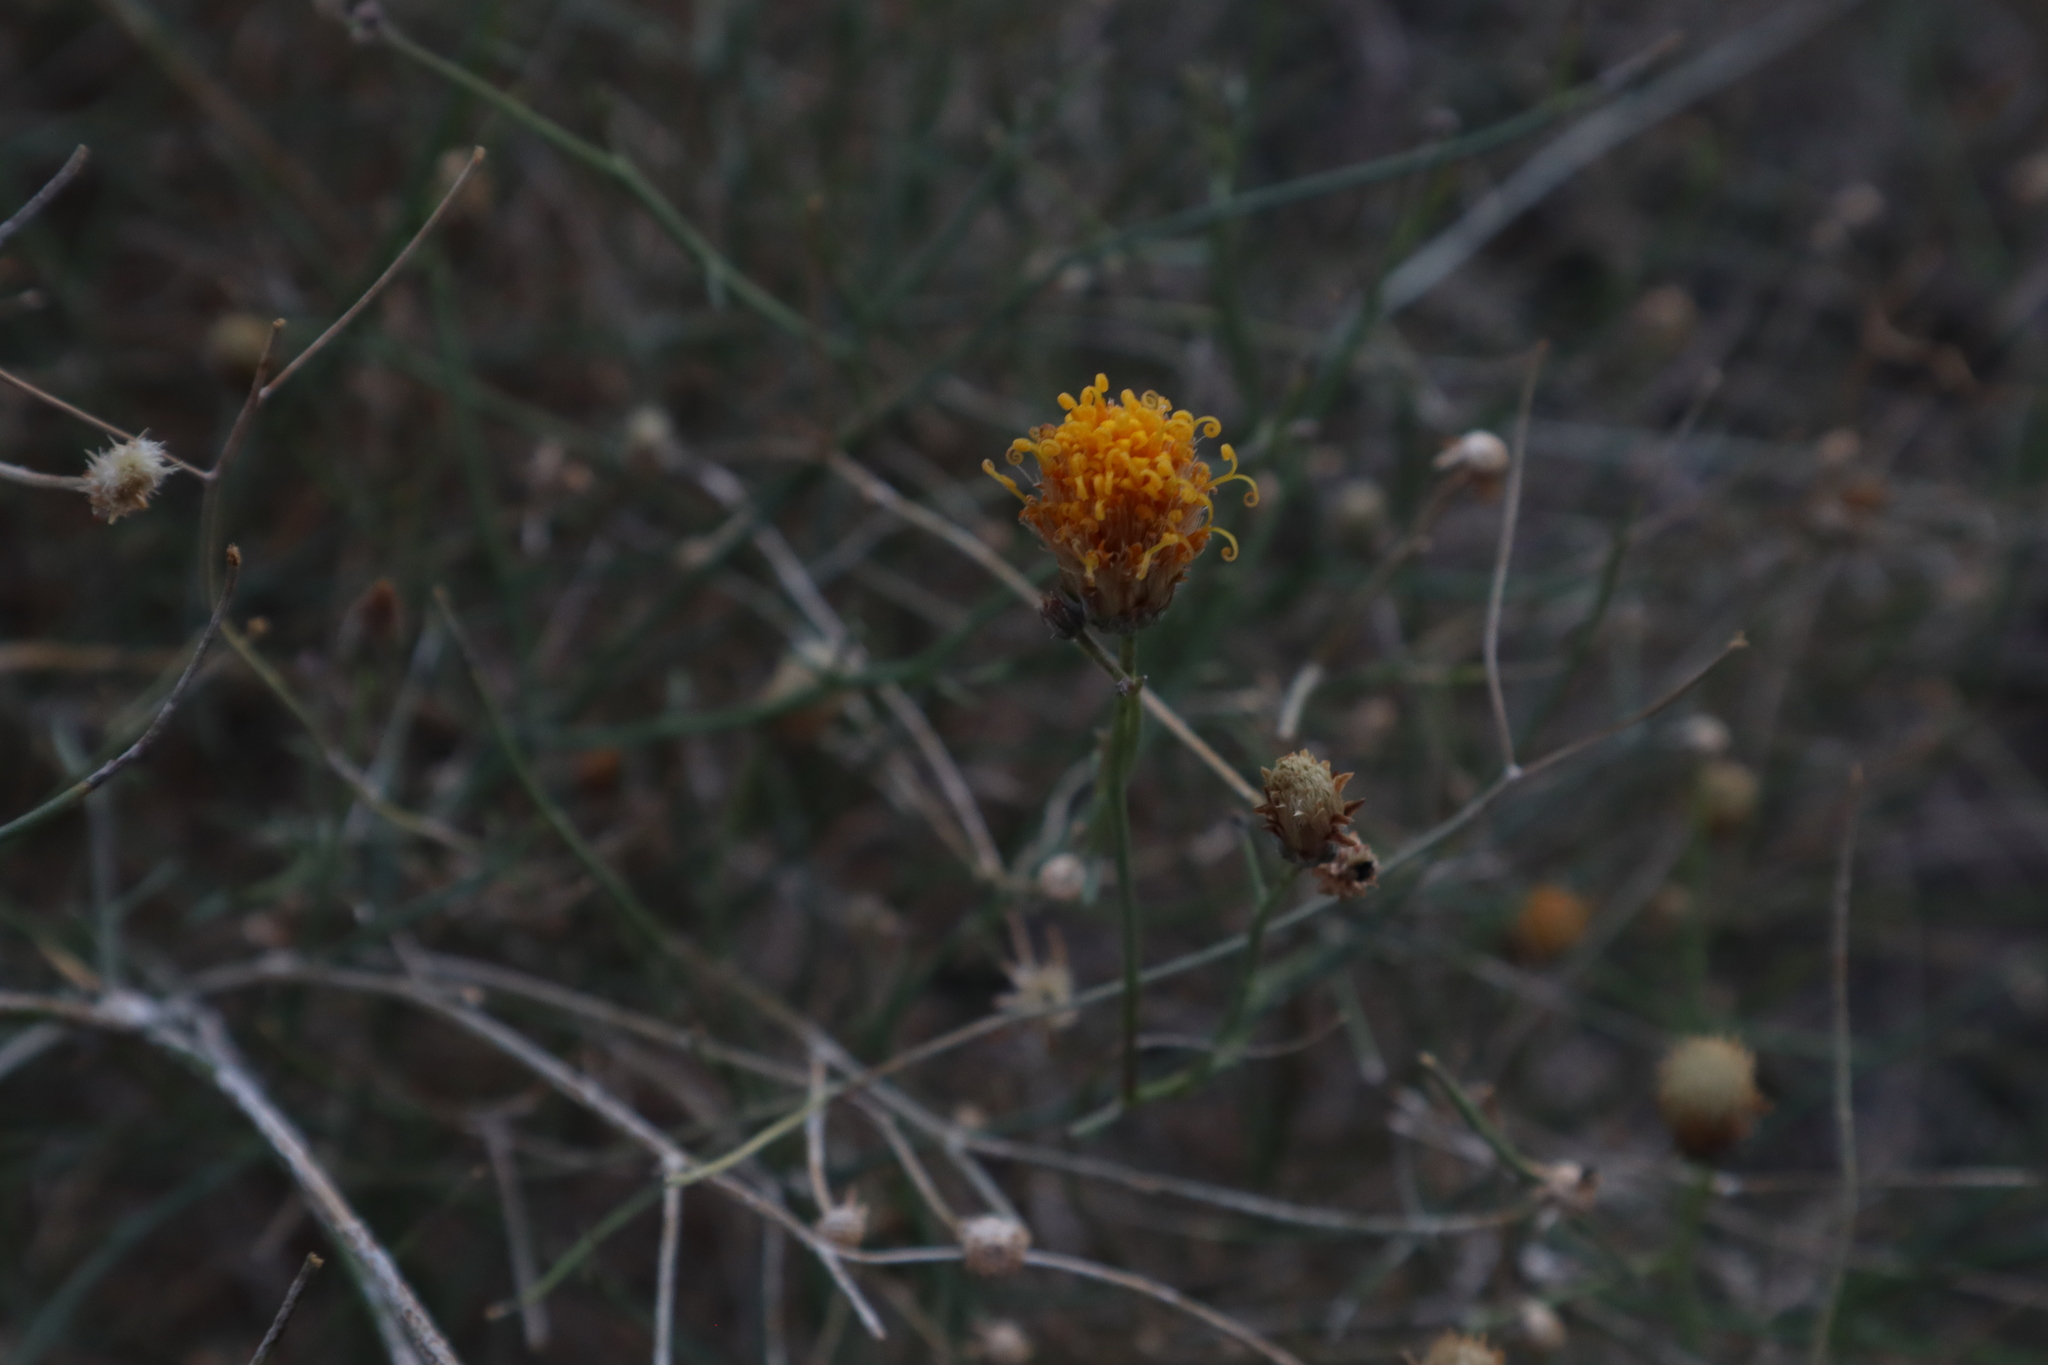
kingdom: Plantae
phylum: Tracheophyta
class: Magnoliopsida
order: Asterales
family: Asteraceae
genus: Bebbia
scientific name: Bebbia juncea
